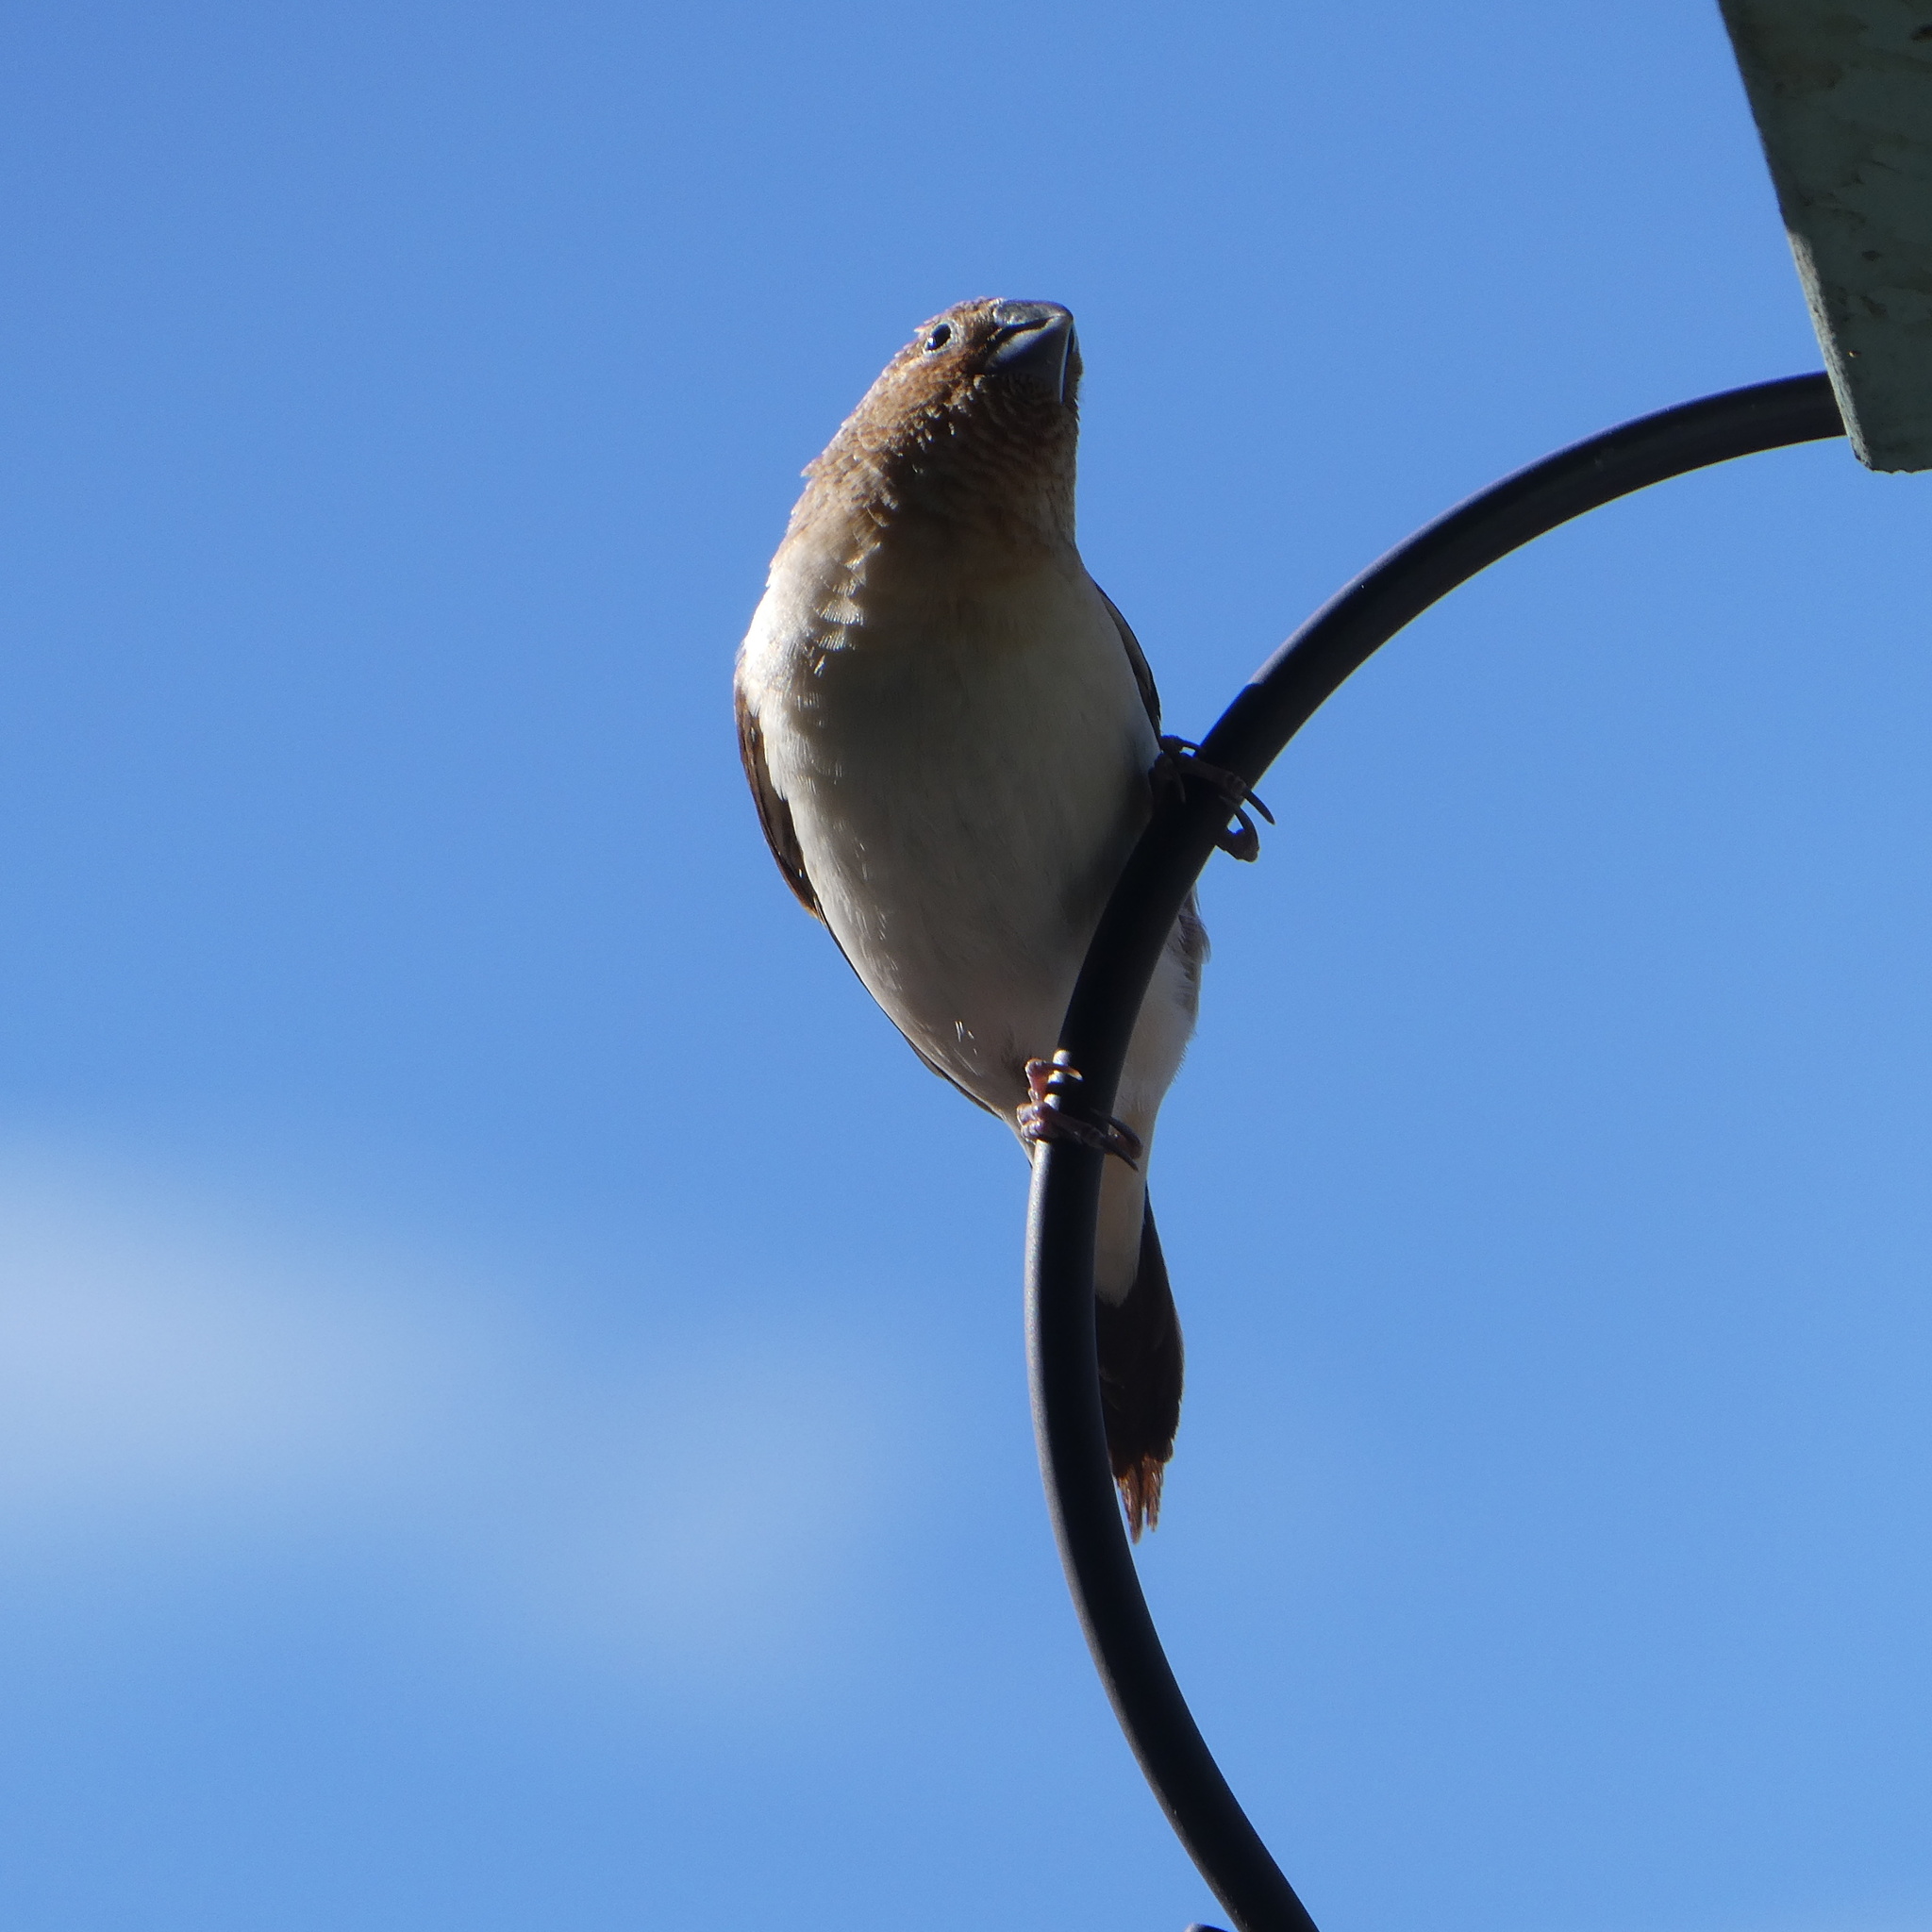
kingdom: Animalia
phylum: Chordata
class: Aves
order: Passeriformes
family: Estrildidae
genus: Euodice
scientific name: Euodice cantans
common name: African silverbill
